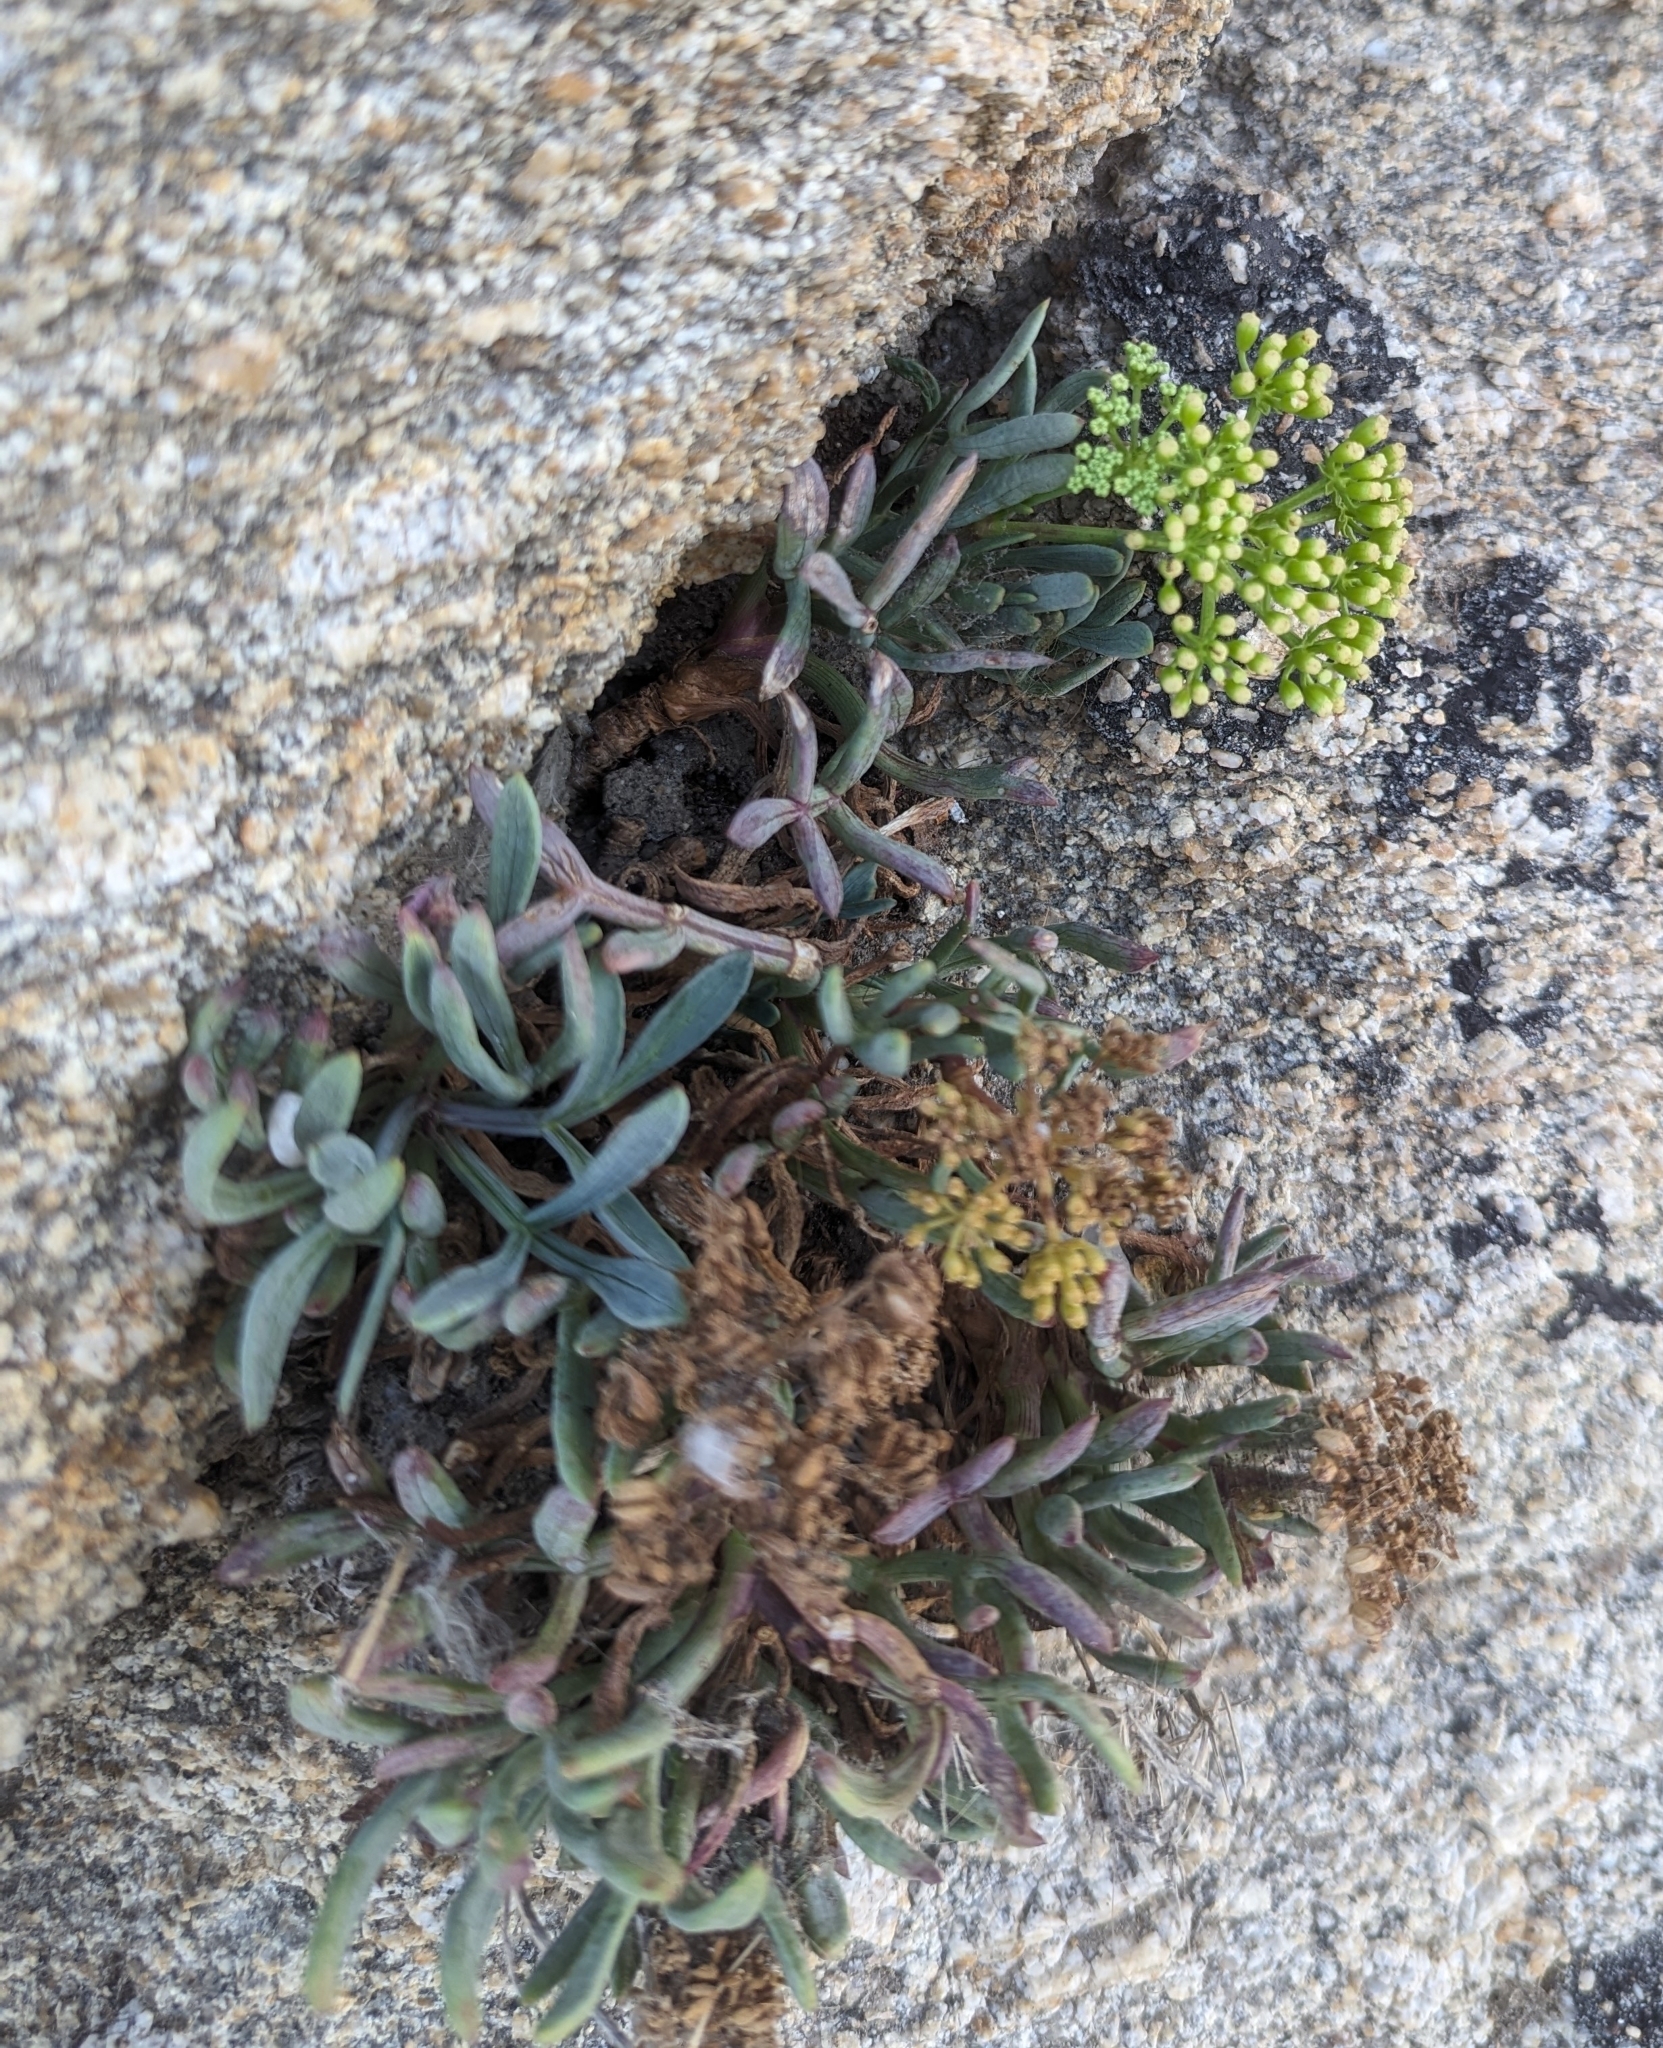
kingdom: Plantae
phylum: Tracheophyta
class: Magnoliopsida
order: Apiales
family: Apiaceae
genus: Crithmum
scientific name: Crithmum maritimum
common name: Rock samphire
